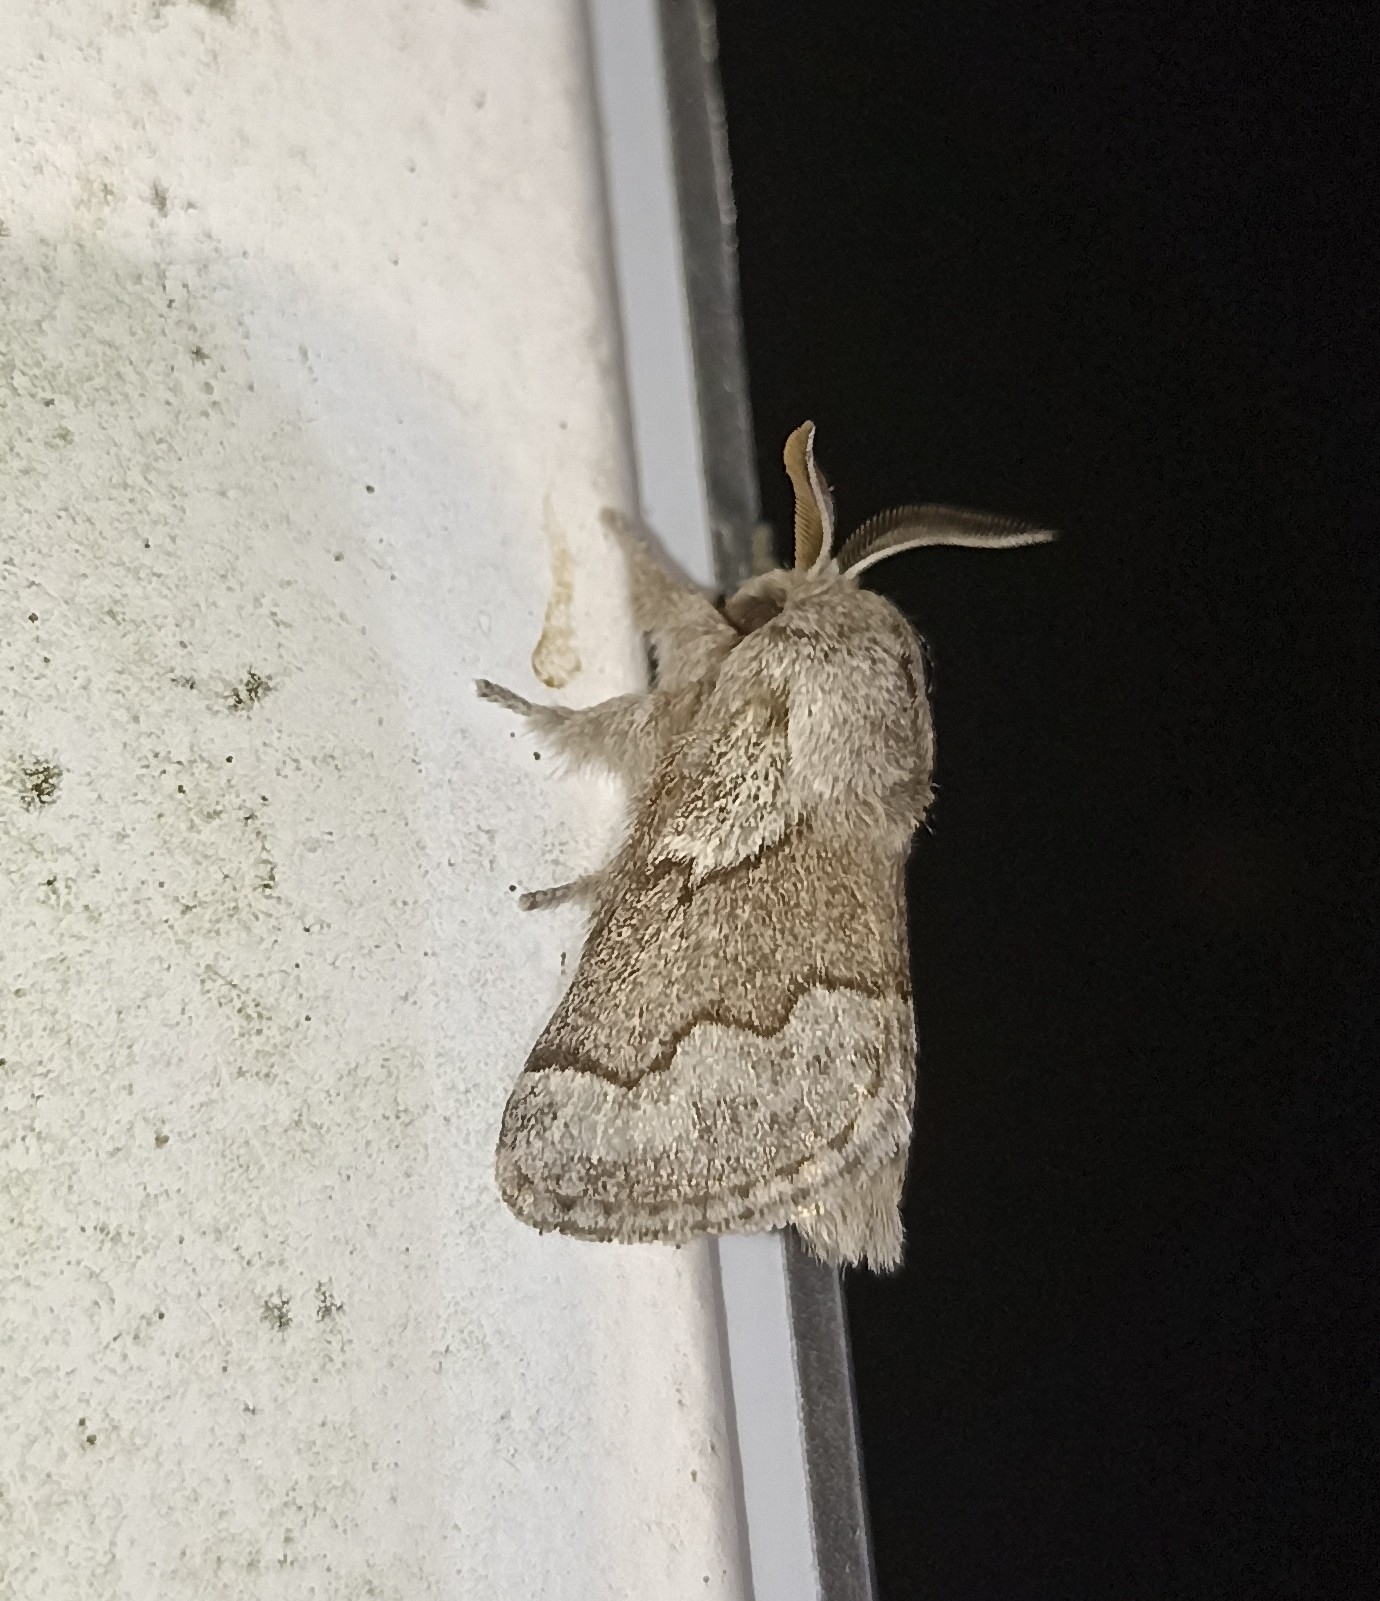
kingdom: Animalia
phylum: Arthropoda
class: Insecta
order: Lepidoptera
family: Lasiocampidae
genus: Trichiura
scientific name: Trichiura crataegi
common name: Pale eggar
